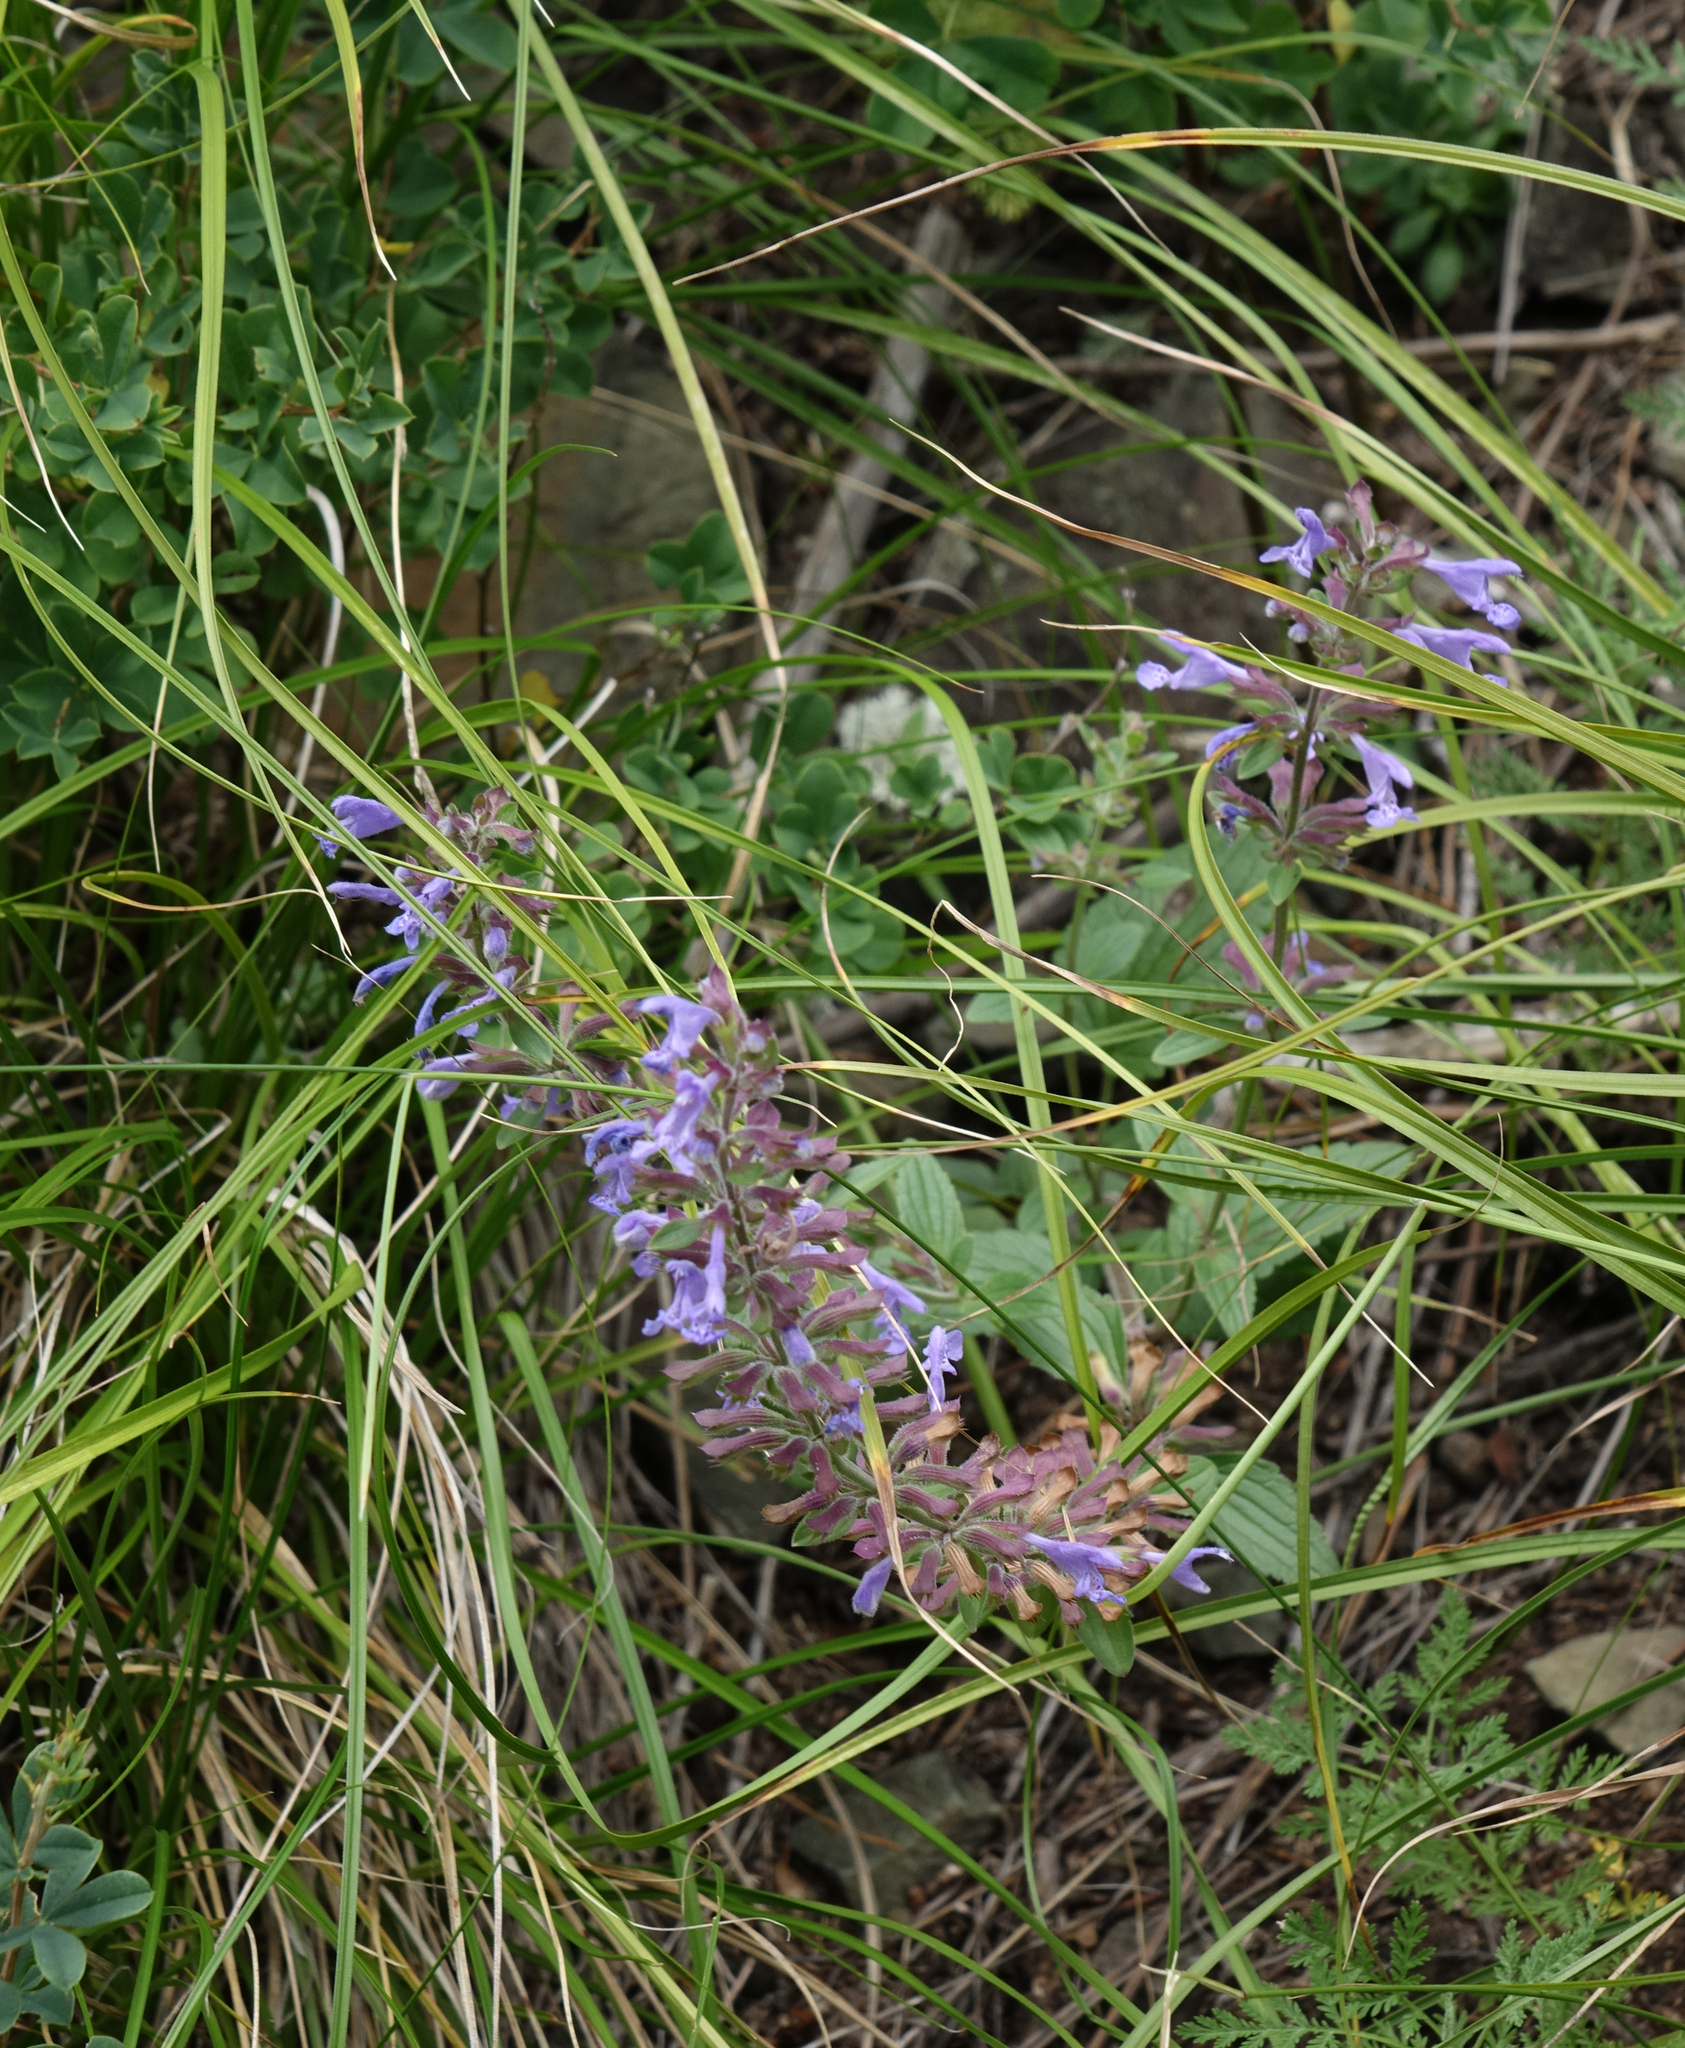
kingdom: Plantae
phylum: Tracheophyta
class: Magnoliopsida
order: Lamiales
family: Lamiaceae
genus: Dracocephalum
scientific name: Dracocephalum nutans
